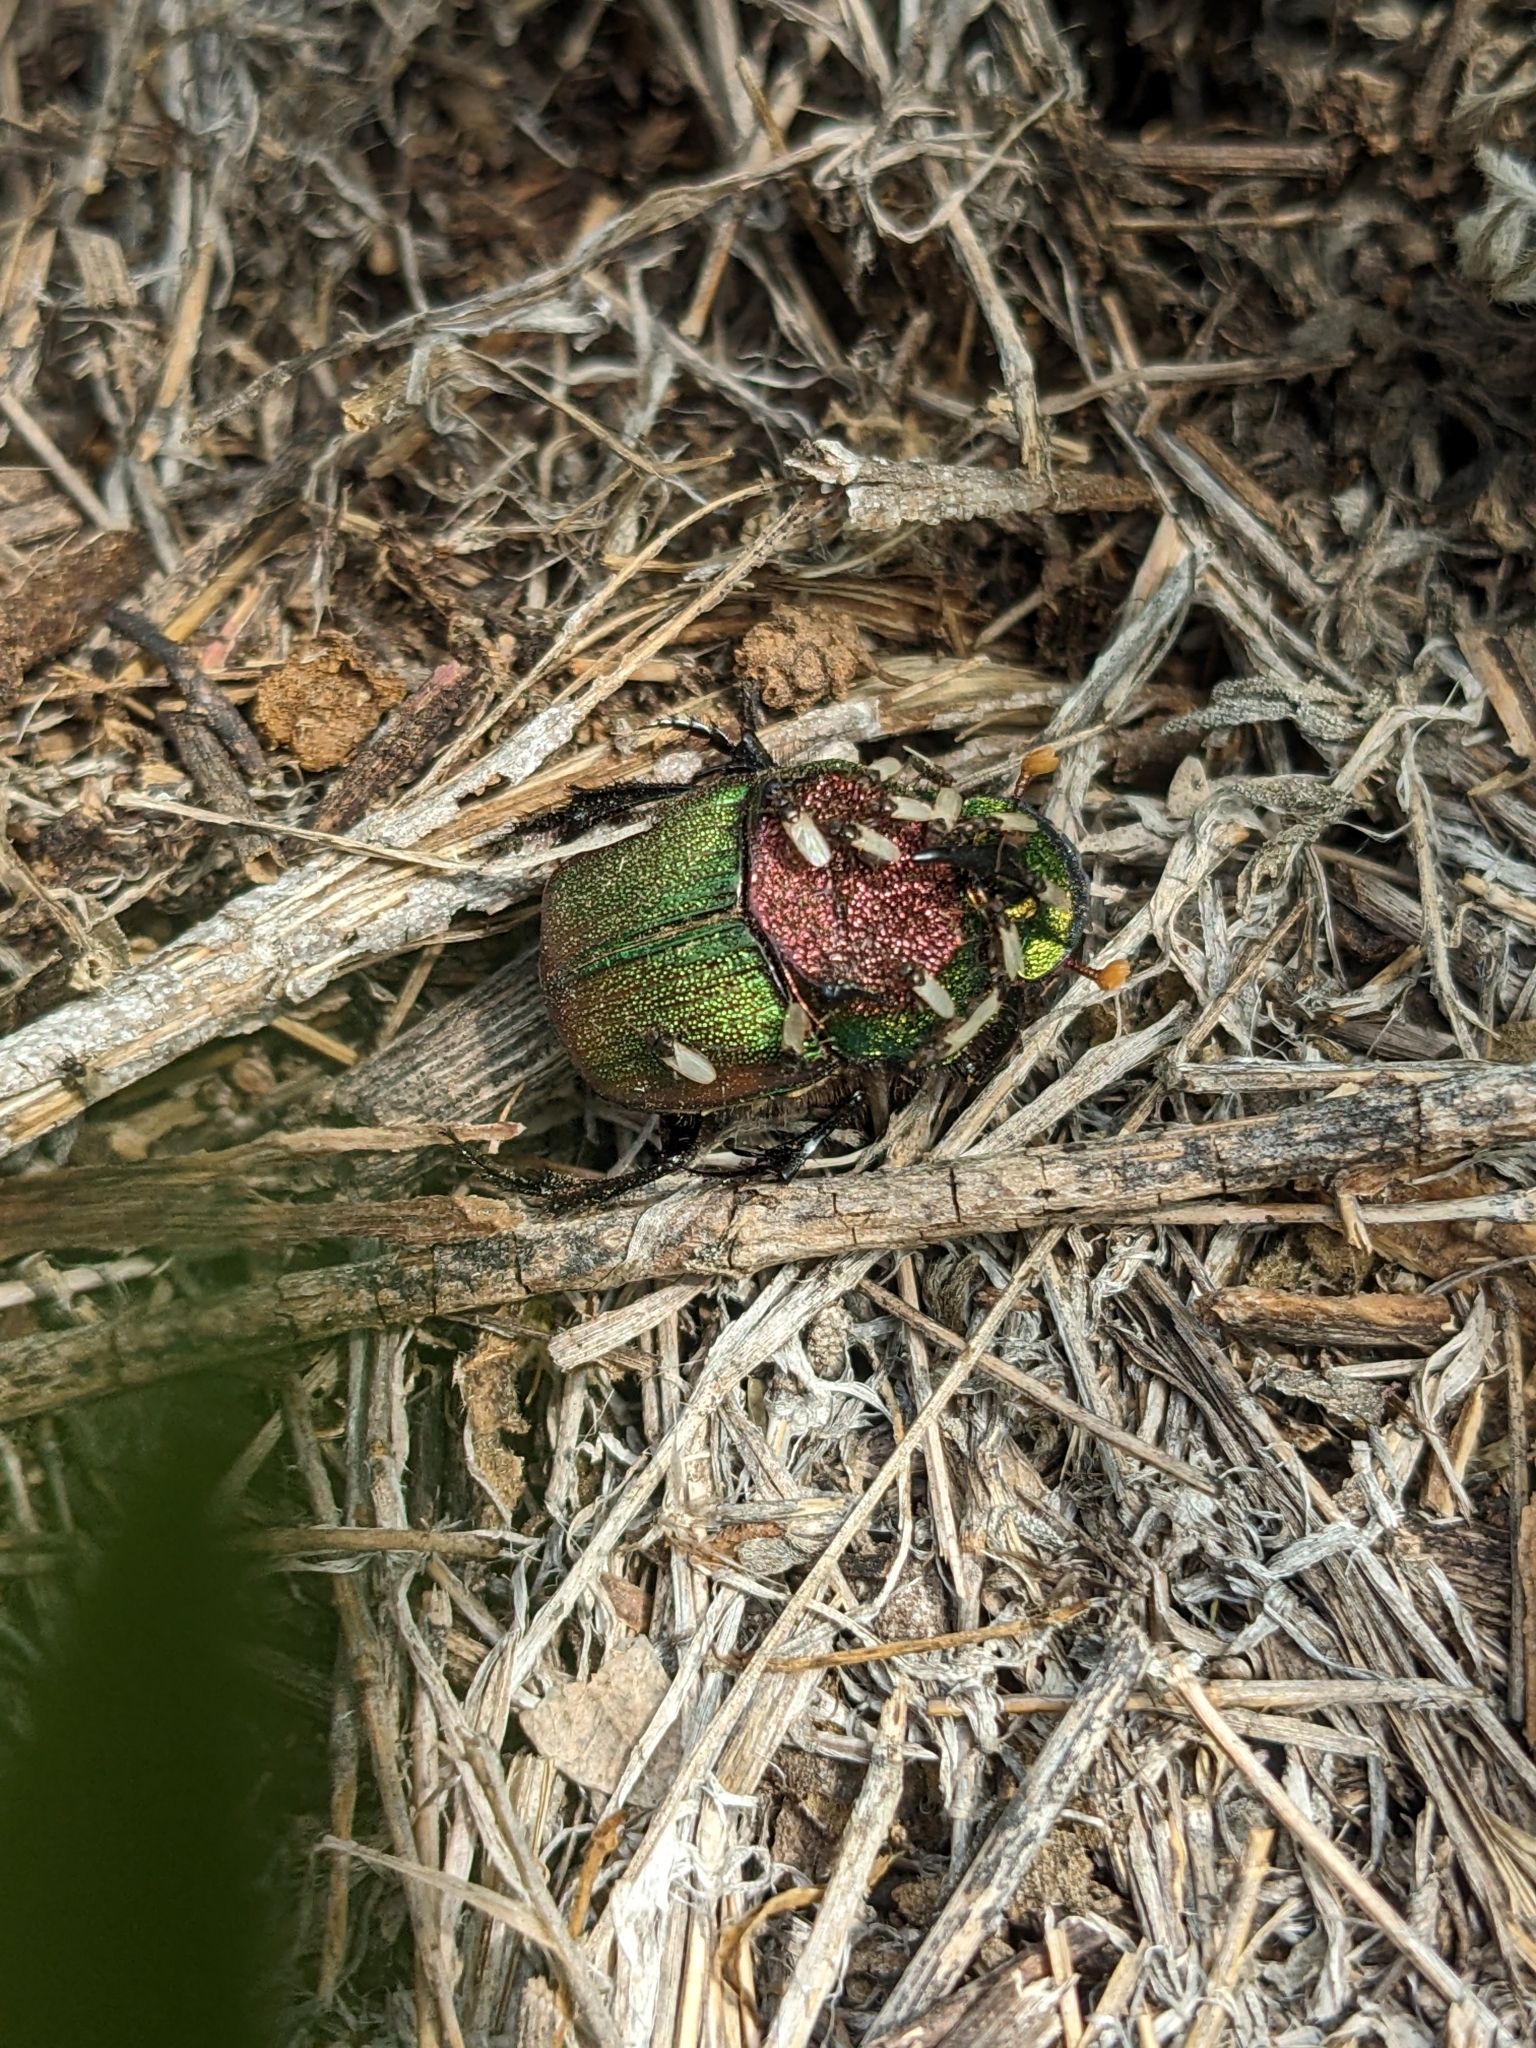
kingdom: Animalia
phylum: Arthropoda
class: Insecta
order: Coleoptera
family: Scarabaeidae
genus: Phanaeus
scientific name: Phanaeus difformis
